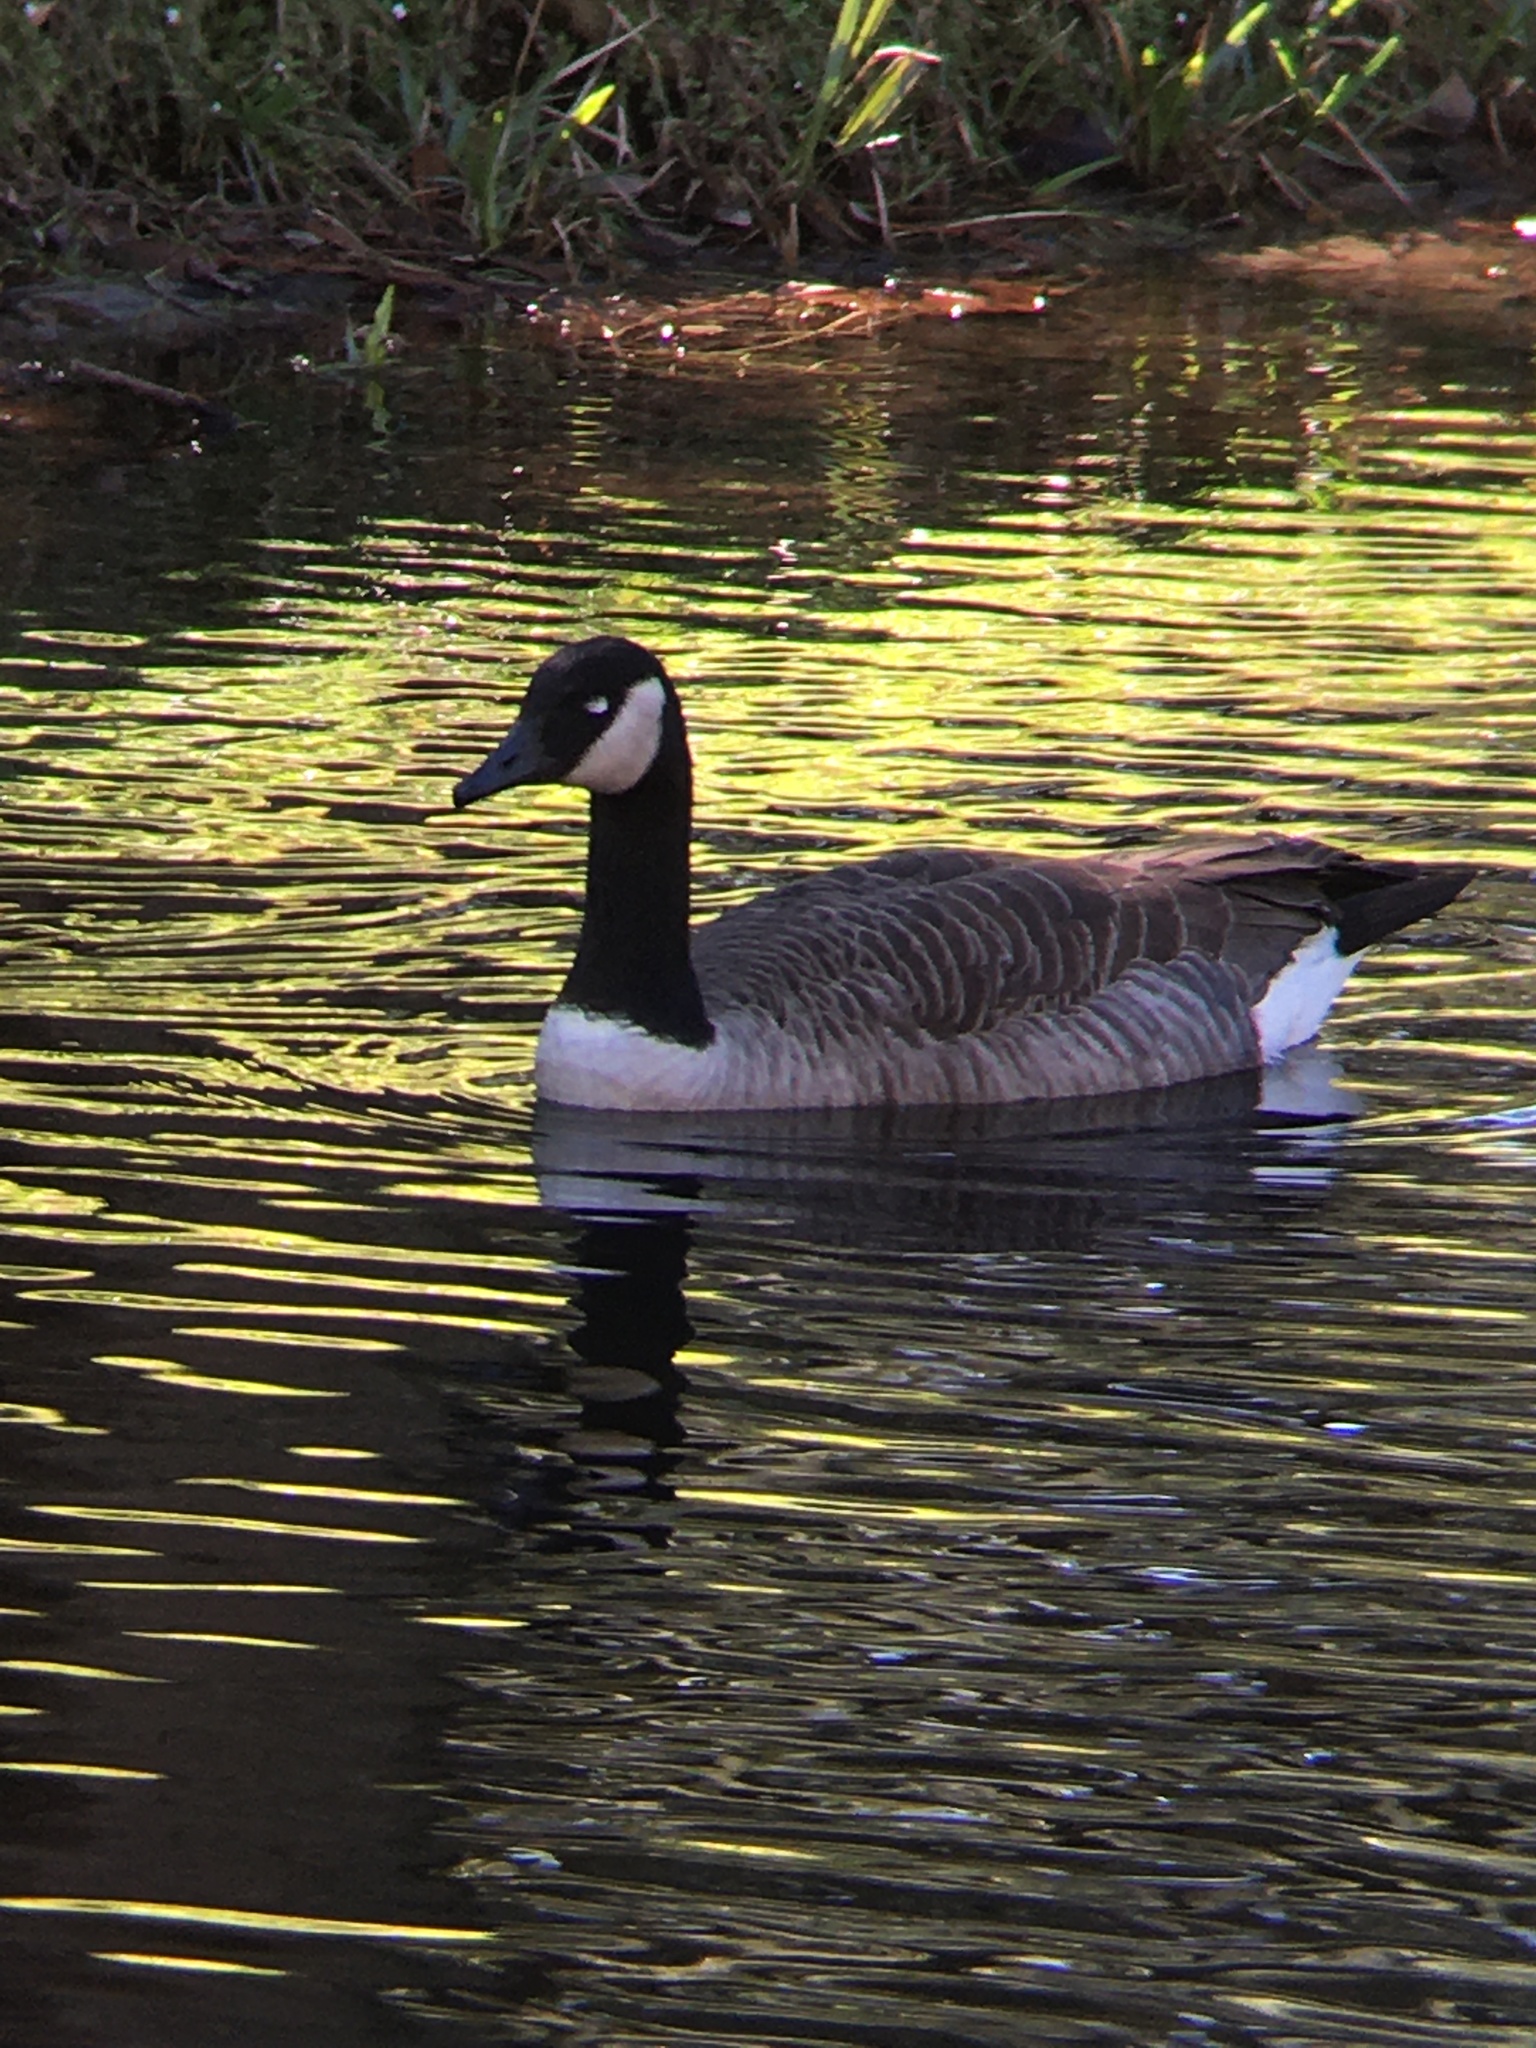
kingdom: Animalia
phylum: Chordata
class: Aves
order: Anseriformes
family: Anatidae
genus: Branta
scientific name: Branta canadensis
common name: Canada goose
